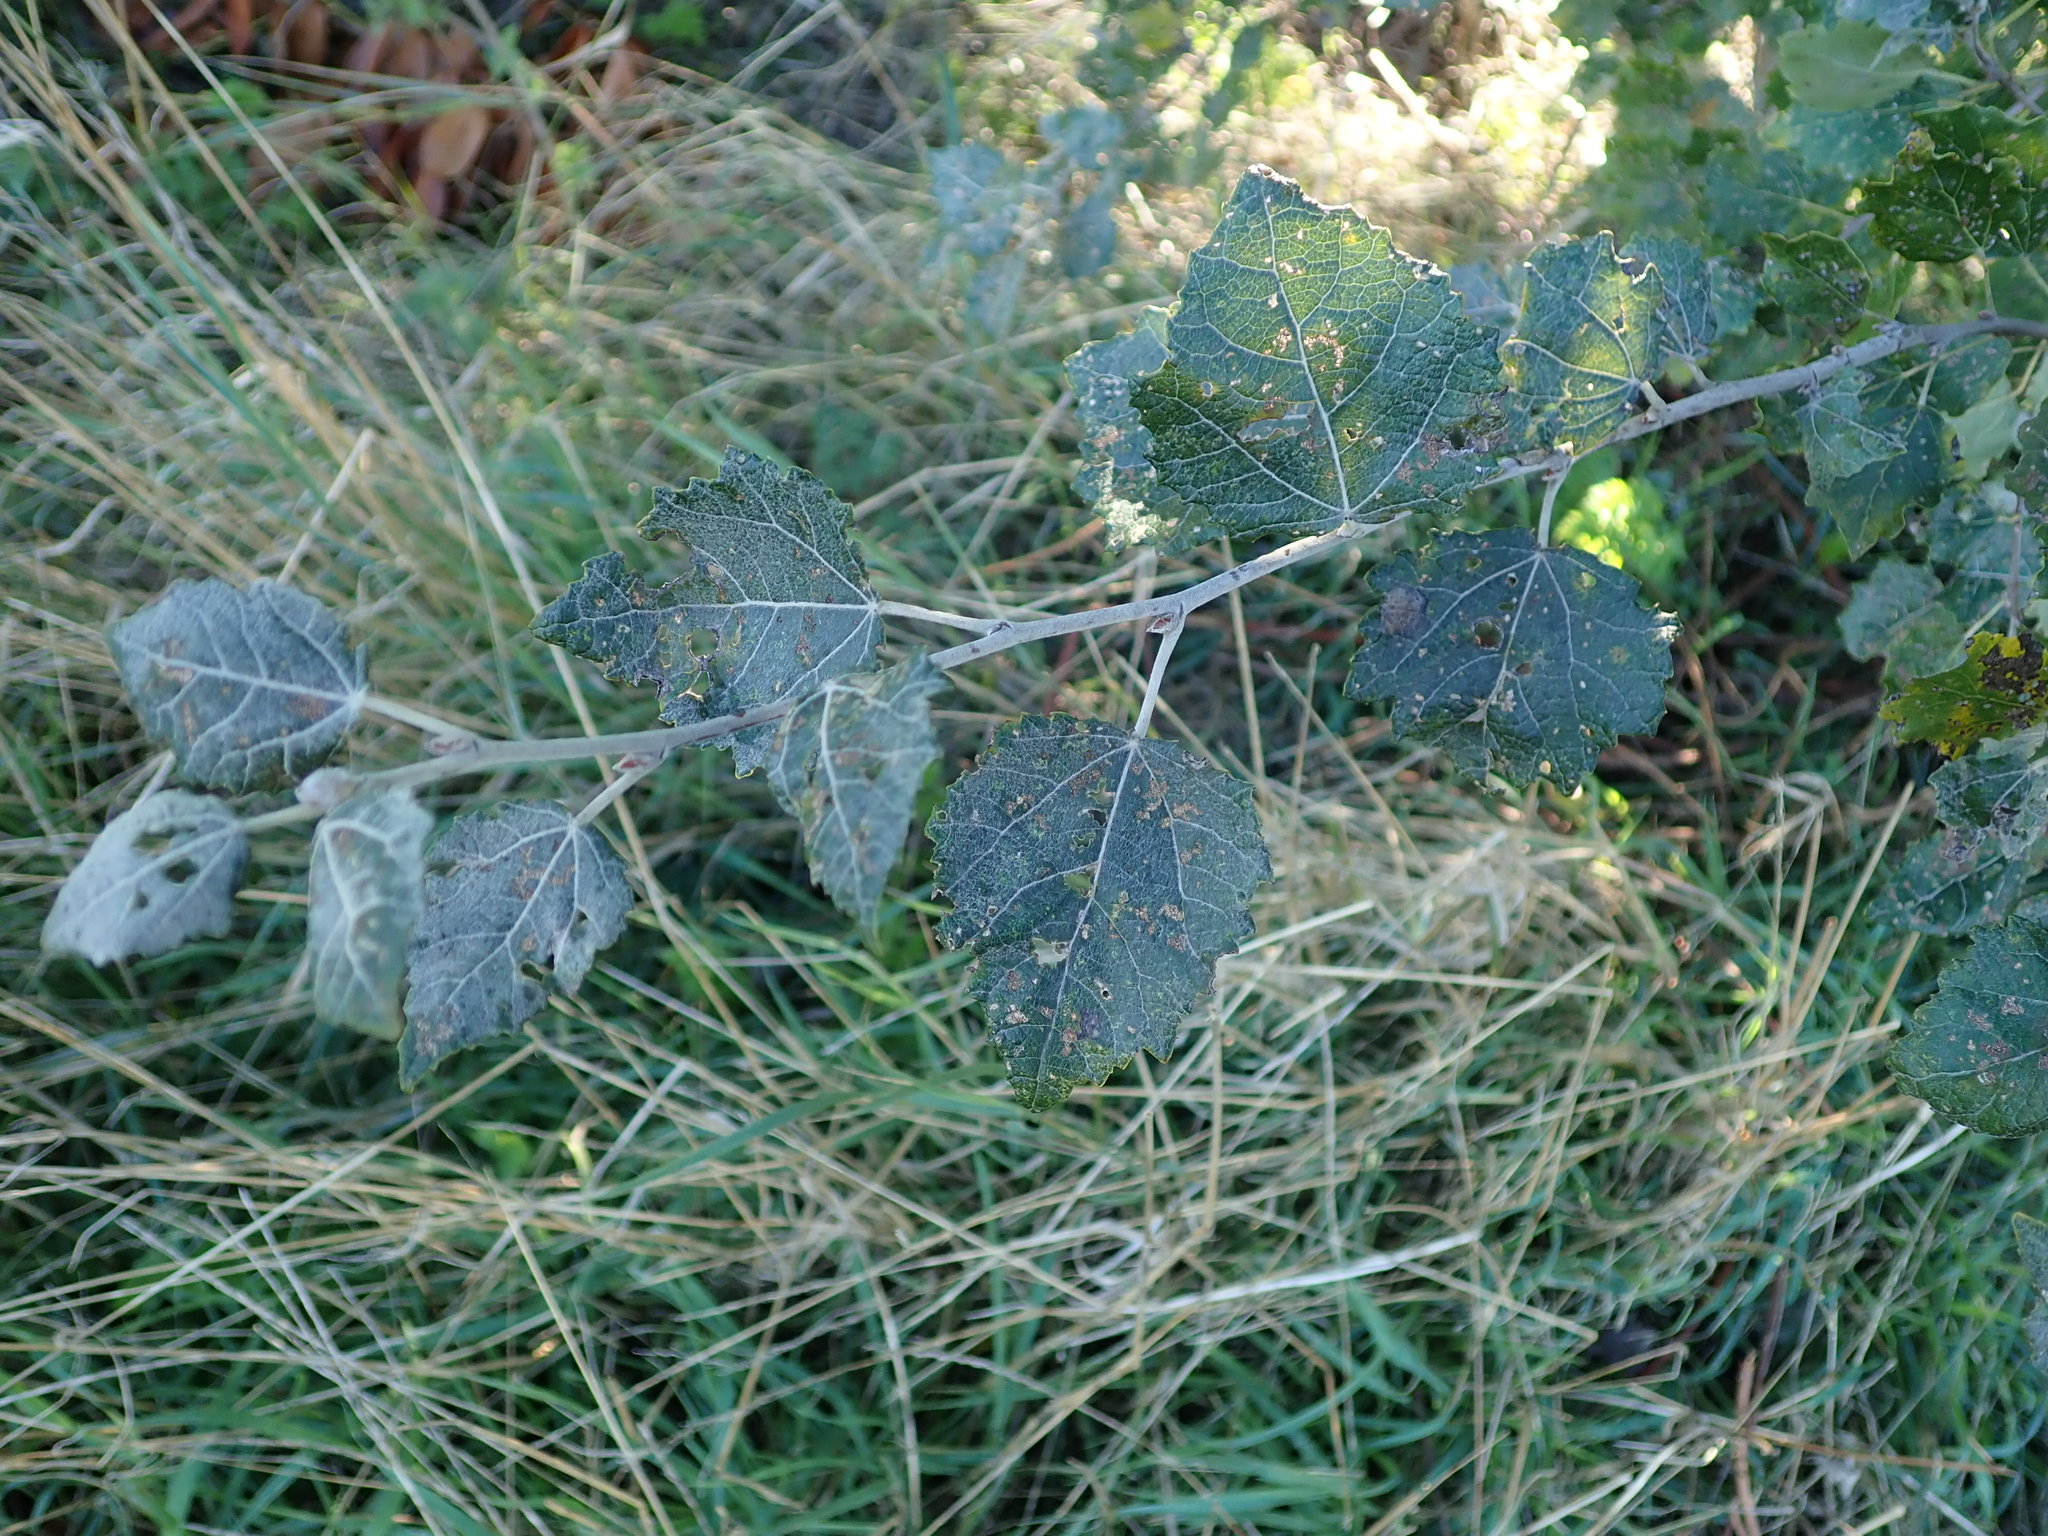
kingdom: Plantae
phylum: Tracheophyta
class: Magnoliopsida
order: Malpighiales
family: Salicaceae
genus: Populus
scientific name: Populus alba
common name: White poplar
